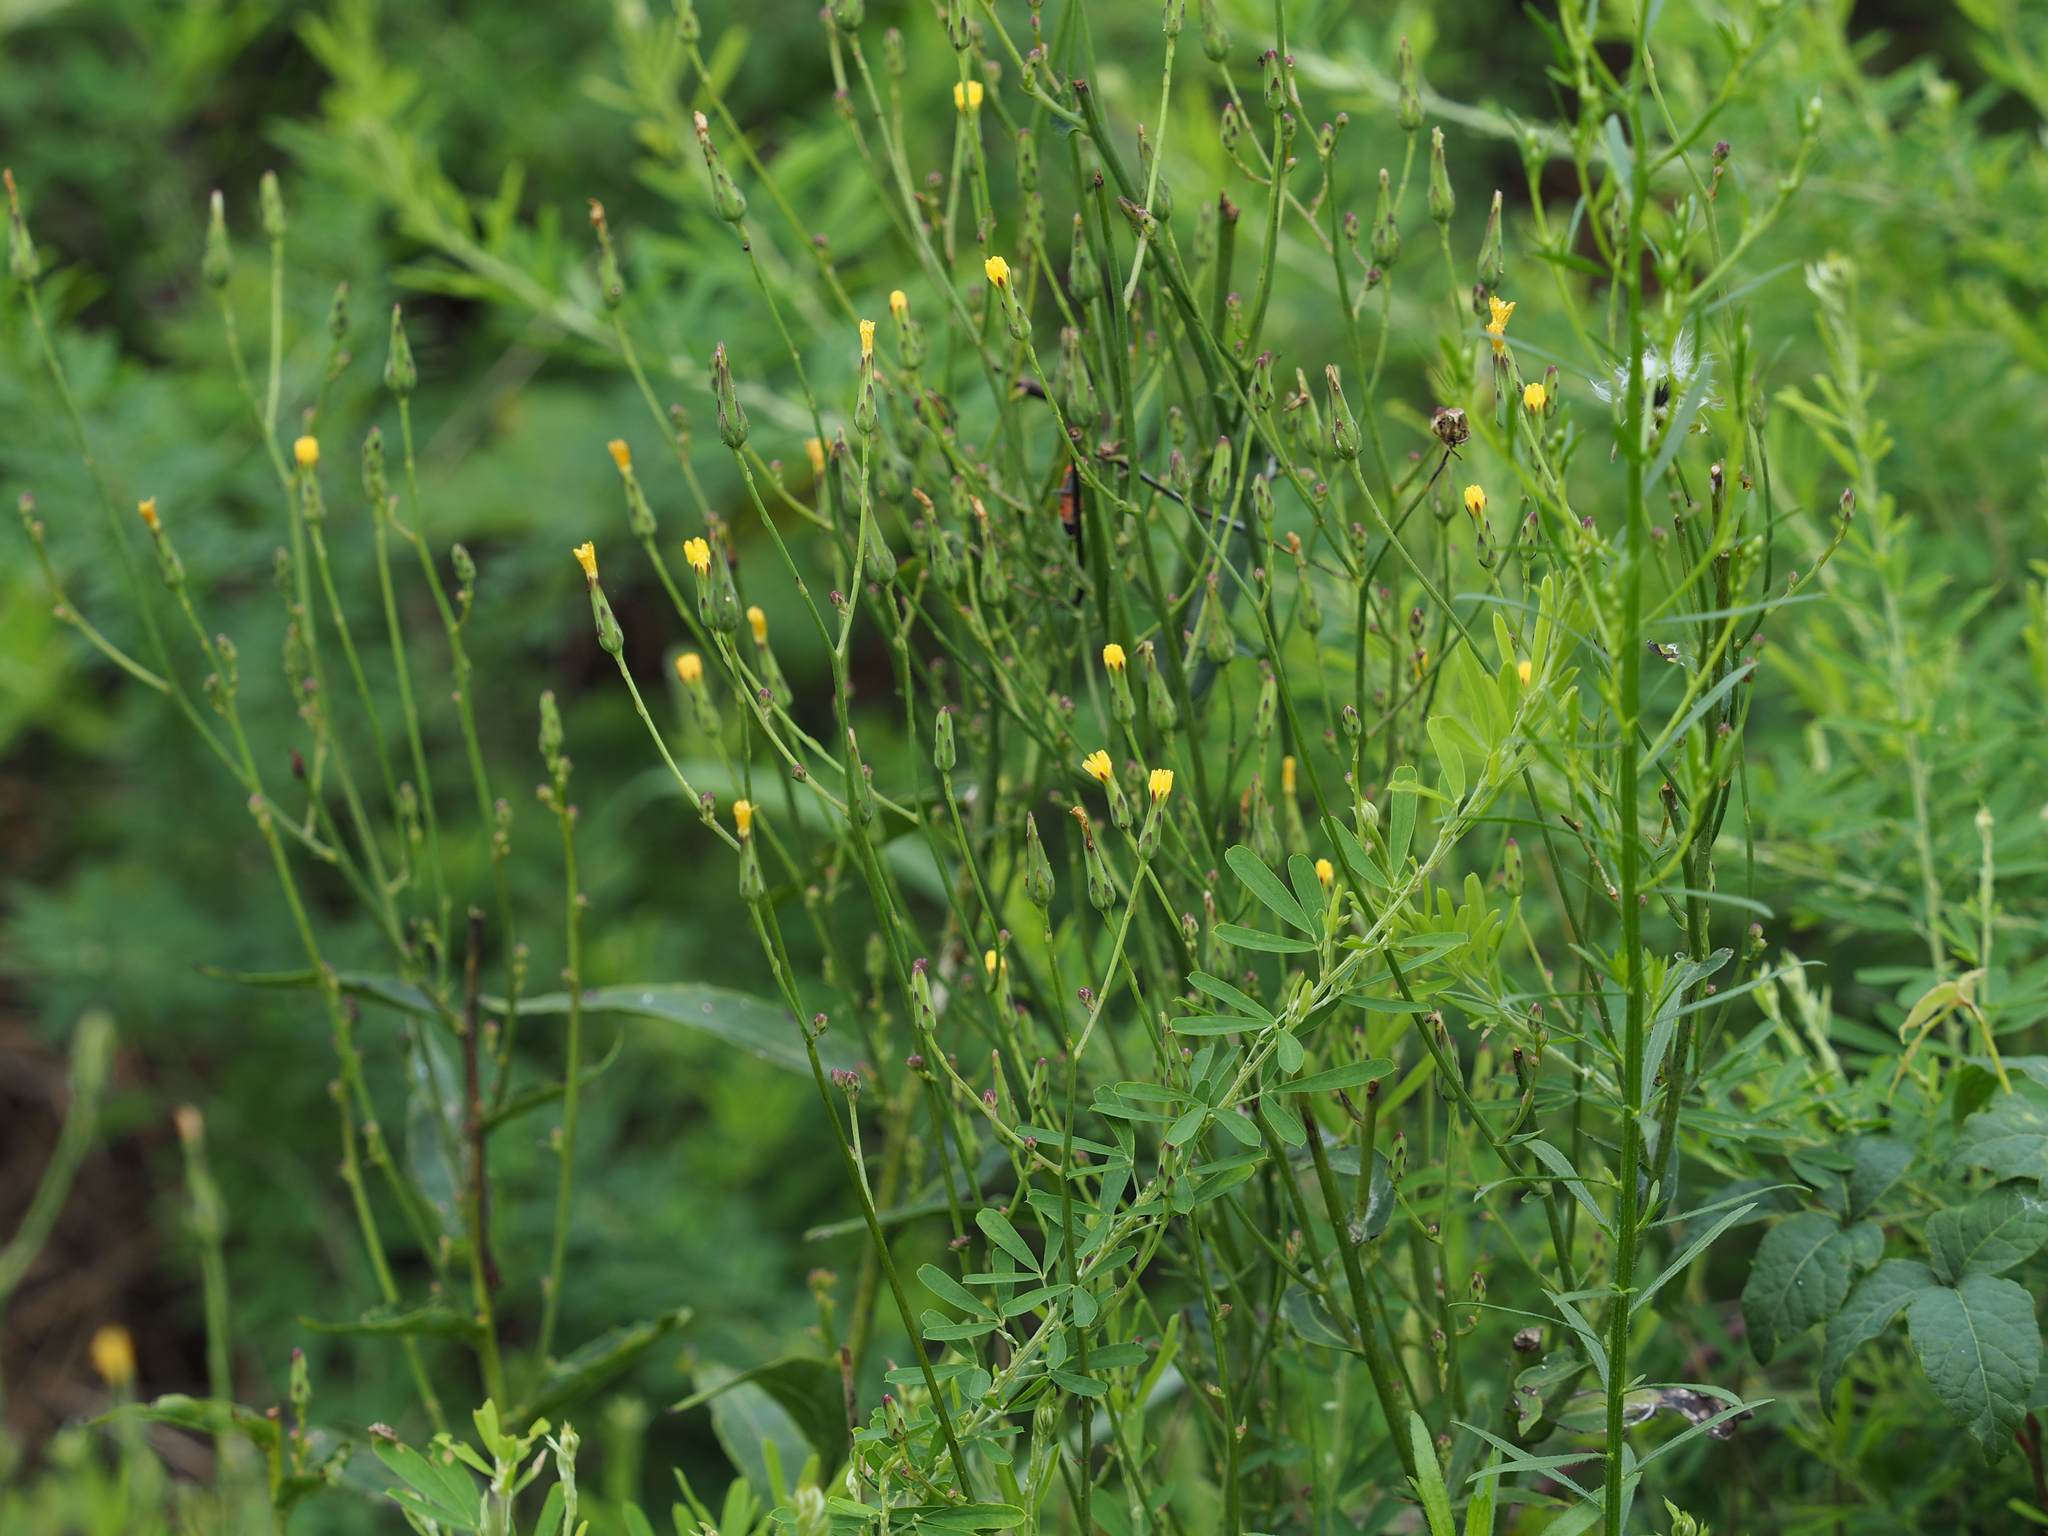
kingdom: Plantae
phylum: Tracheophyta
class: Magnoliopsida
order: Asterales
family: Asteraceae
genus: Lactuca
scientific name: Lactuca canadensis
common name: Canada lettuce
